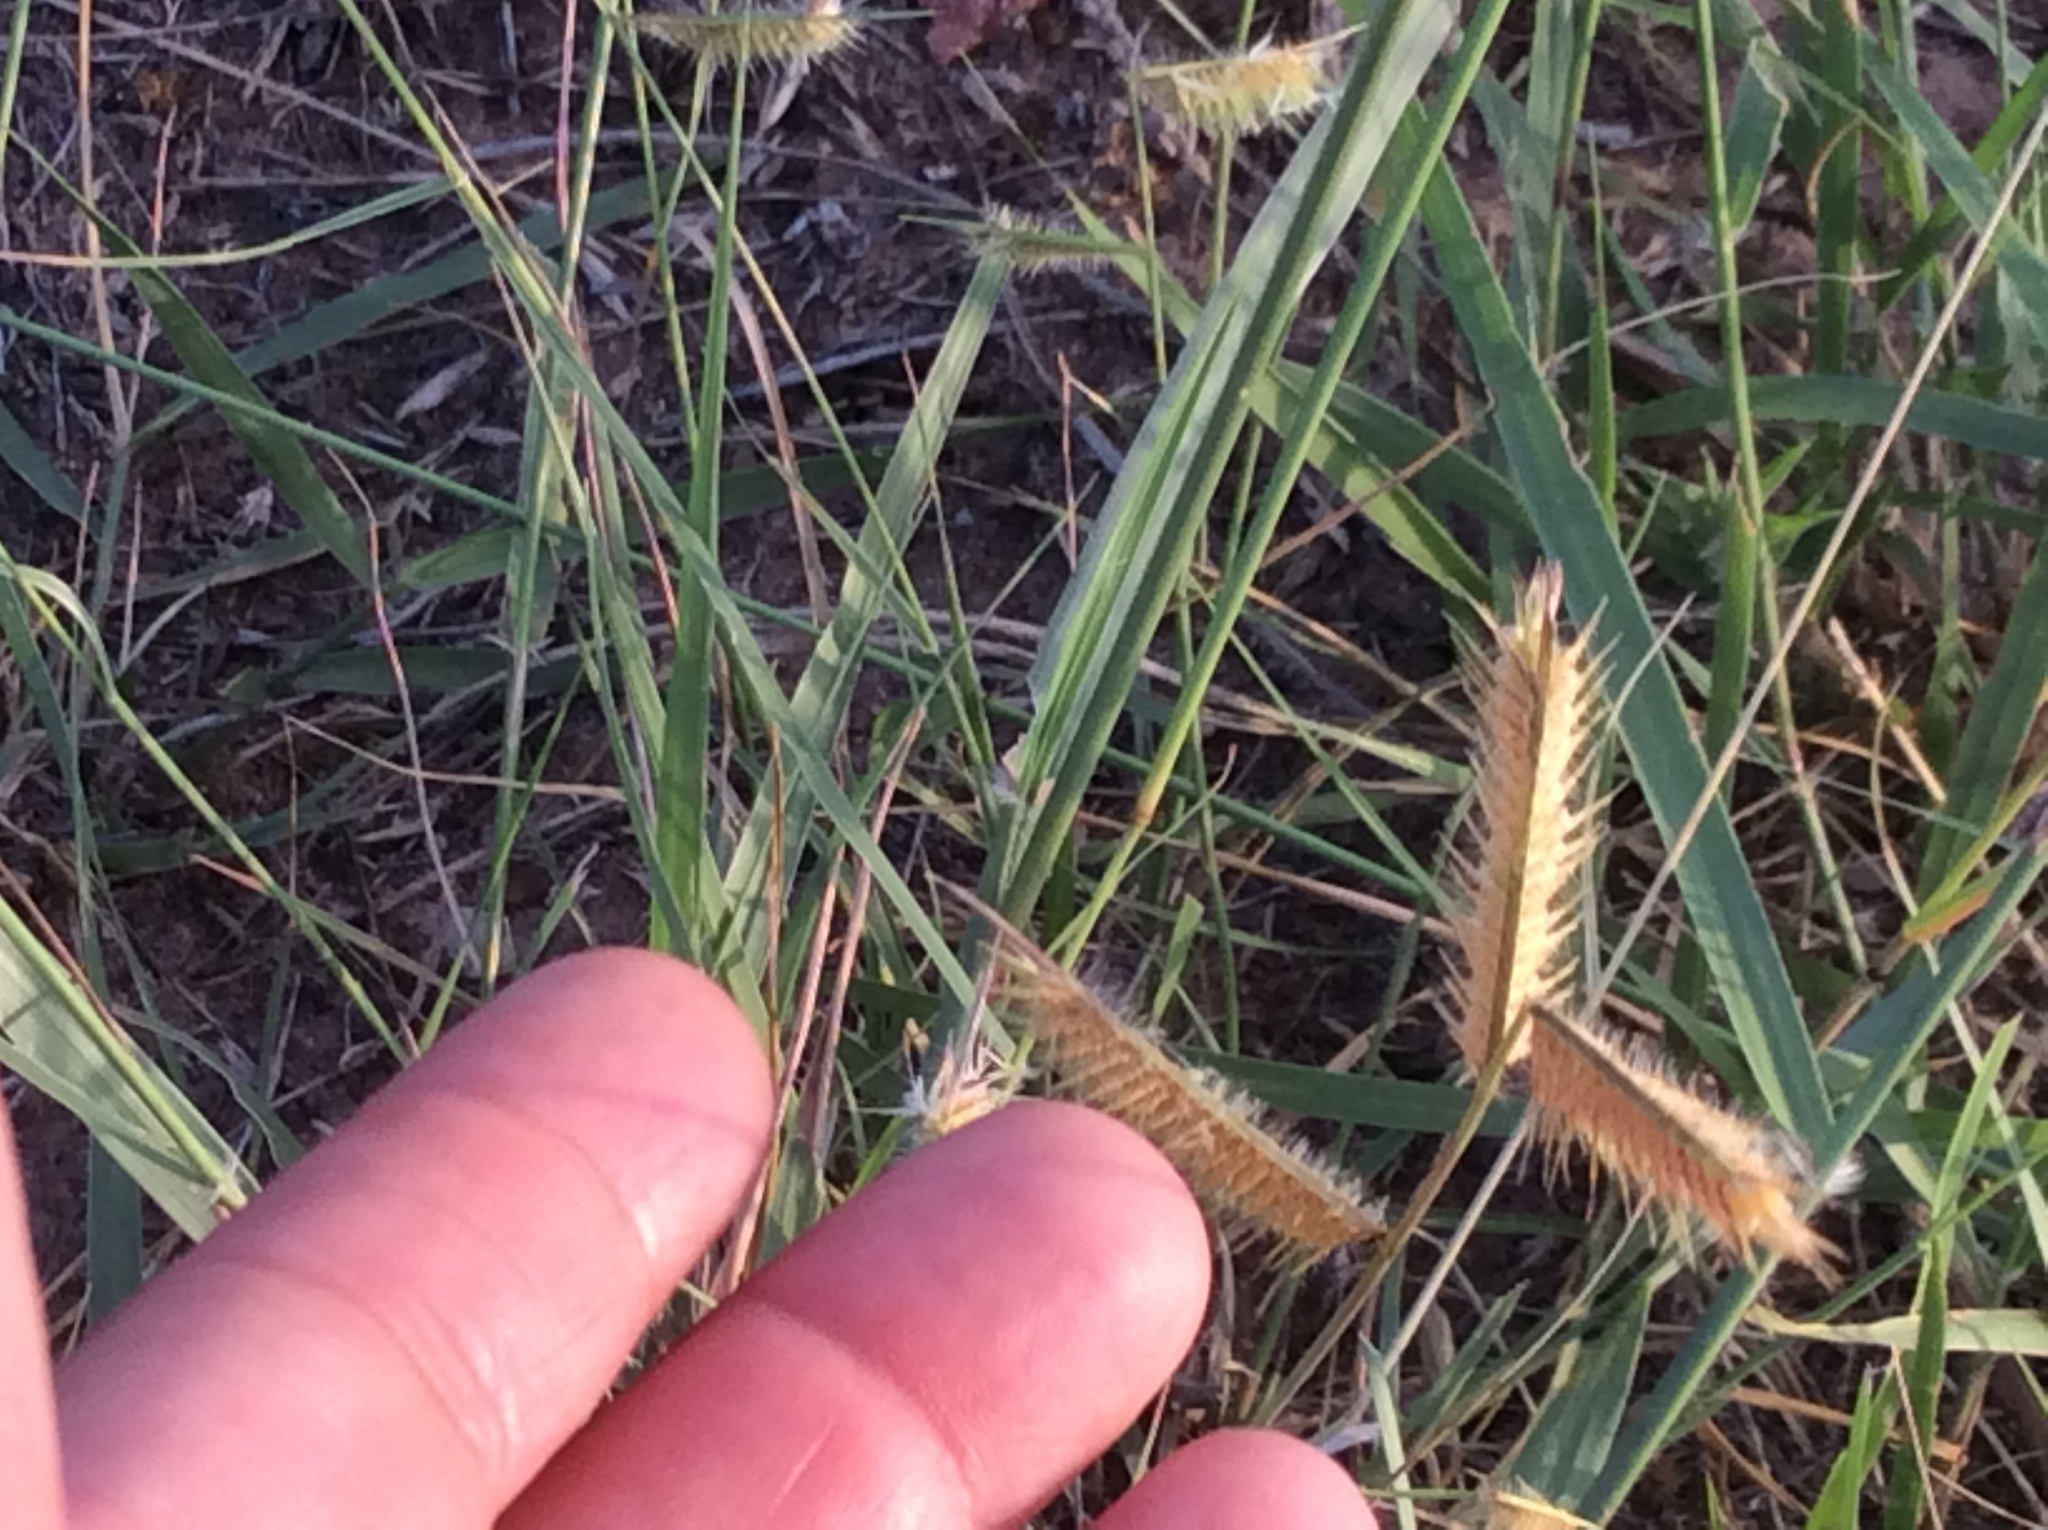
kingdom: Plantae
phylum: Tracheophyta
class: Liliopsida
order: Poales
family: Poaceae
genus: Bouteloua
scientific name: Bouteloua hirsuta
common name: Hairy grama
